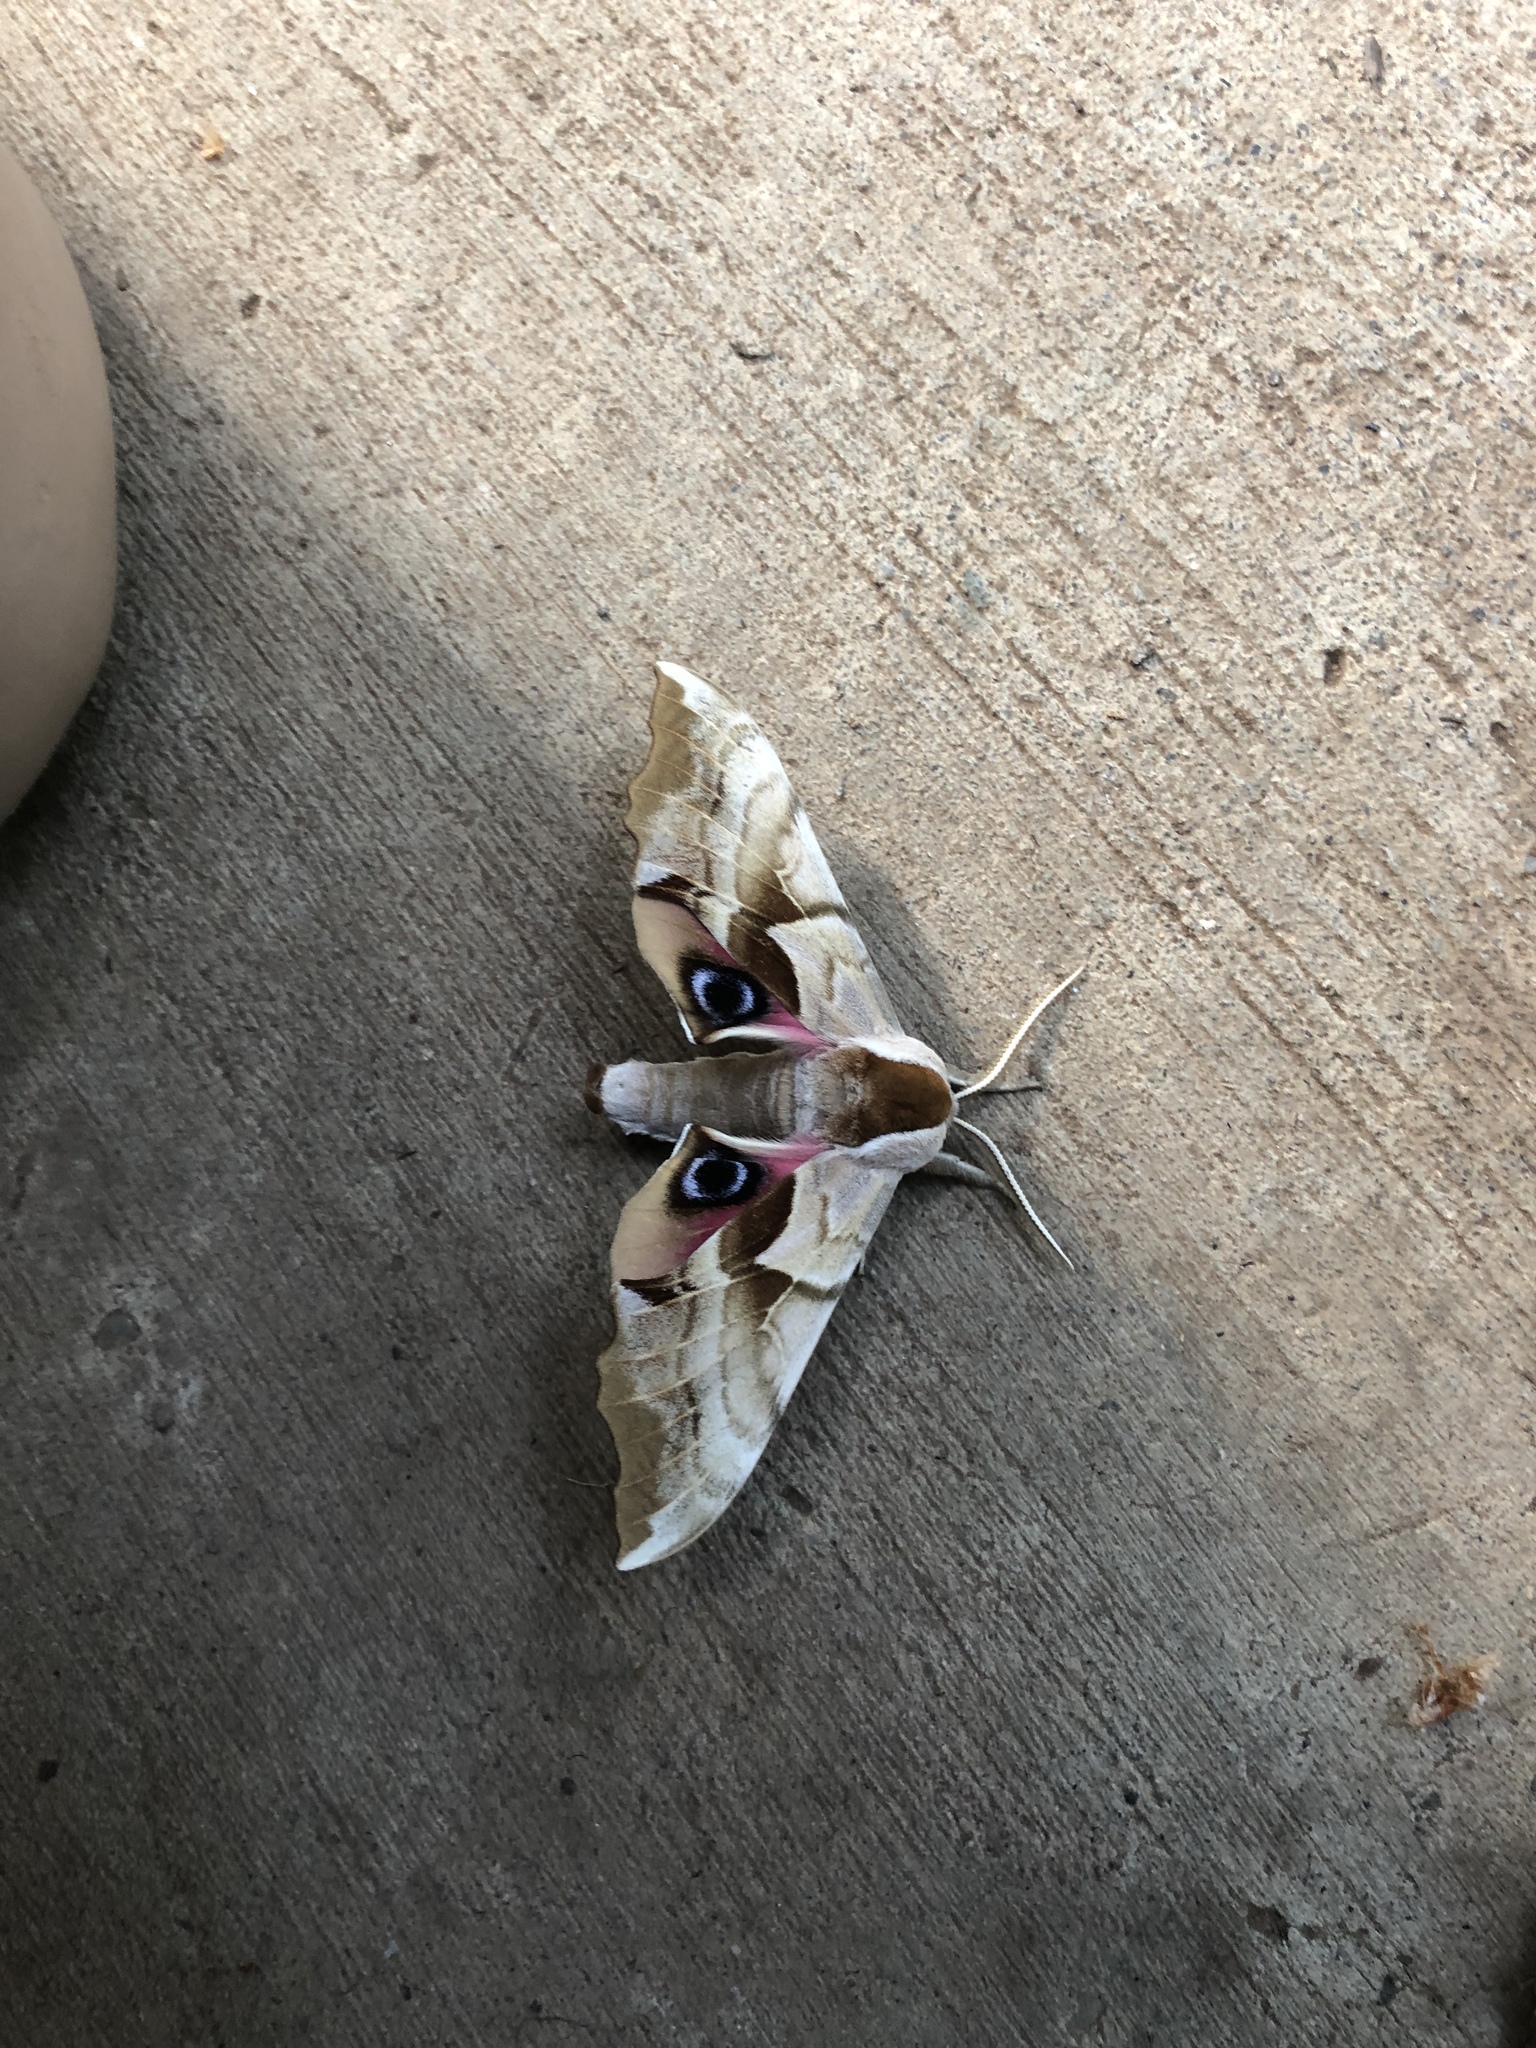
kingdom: Animalia
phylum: Arthropoda
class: Insecta
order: Lepidoptera
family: Sphingidae
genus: Smerinthus
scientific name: Smerinthus cerisyi
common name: Cerisy's sphinx moth
